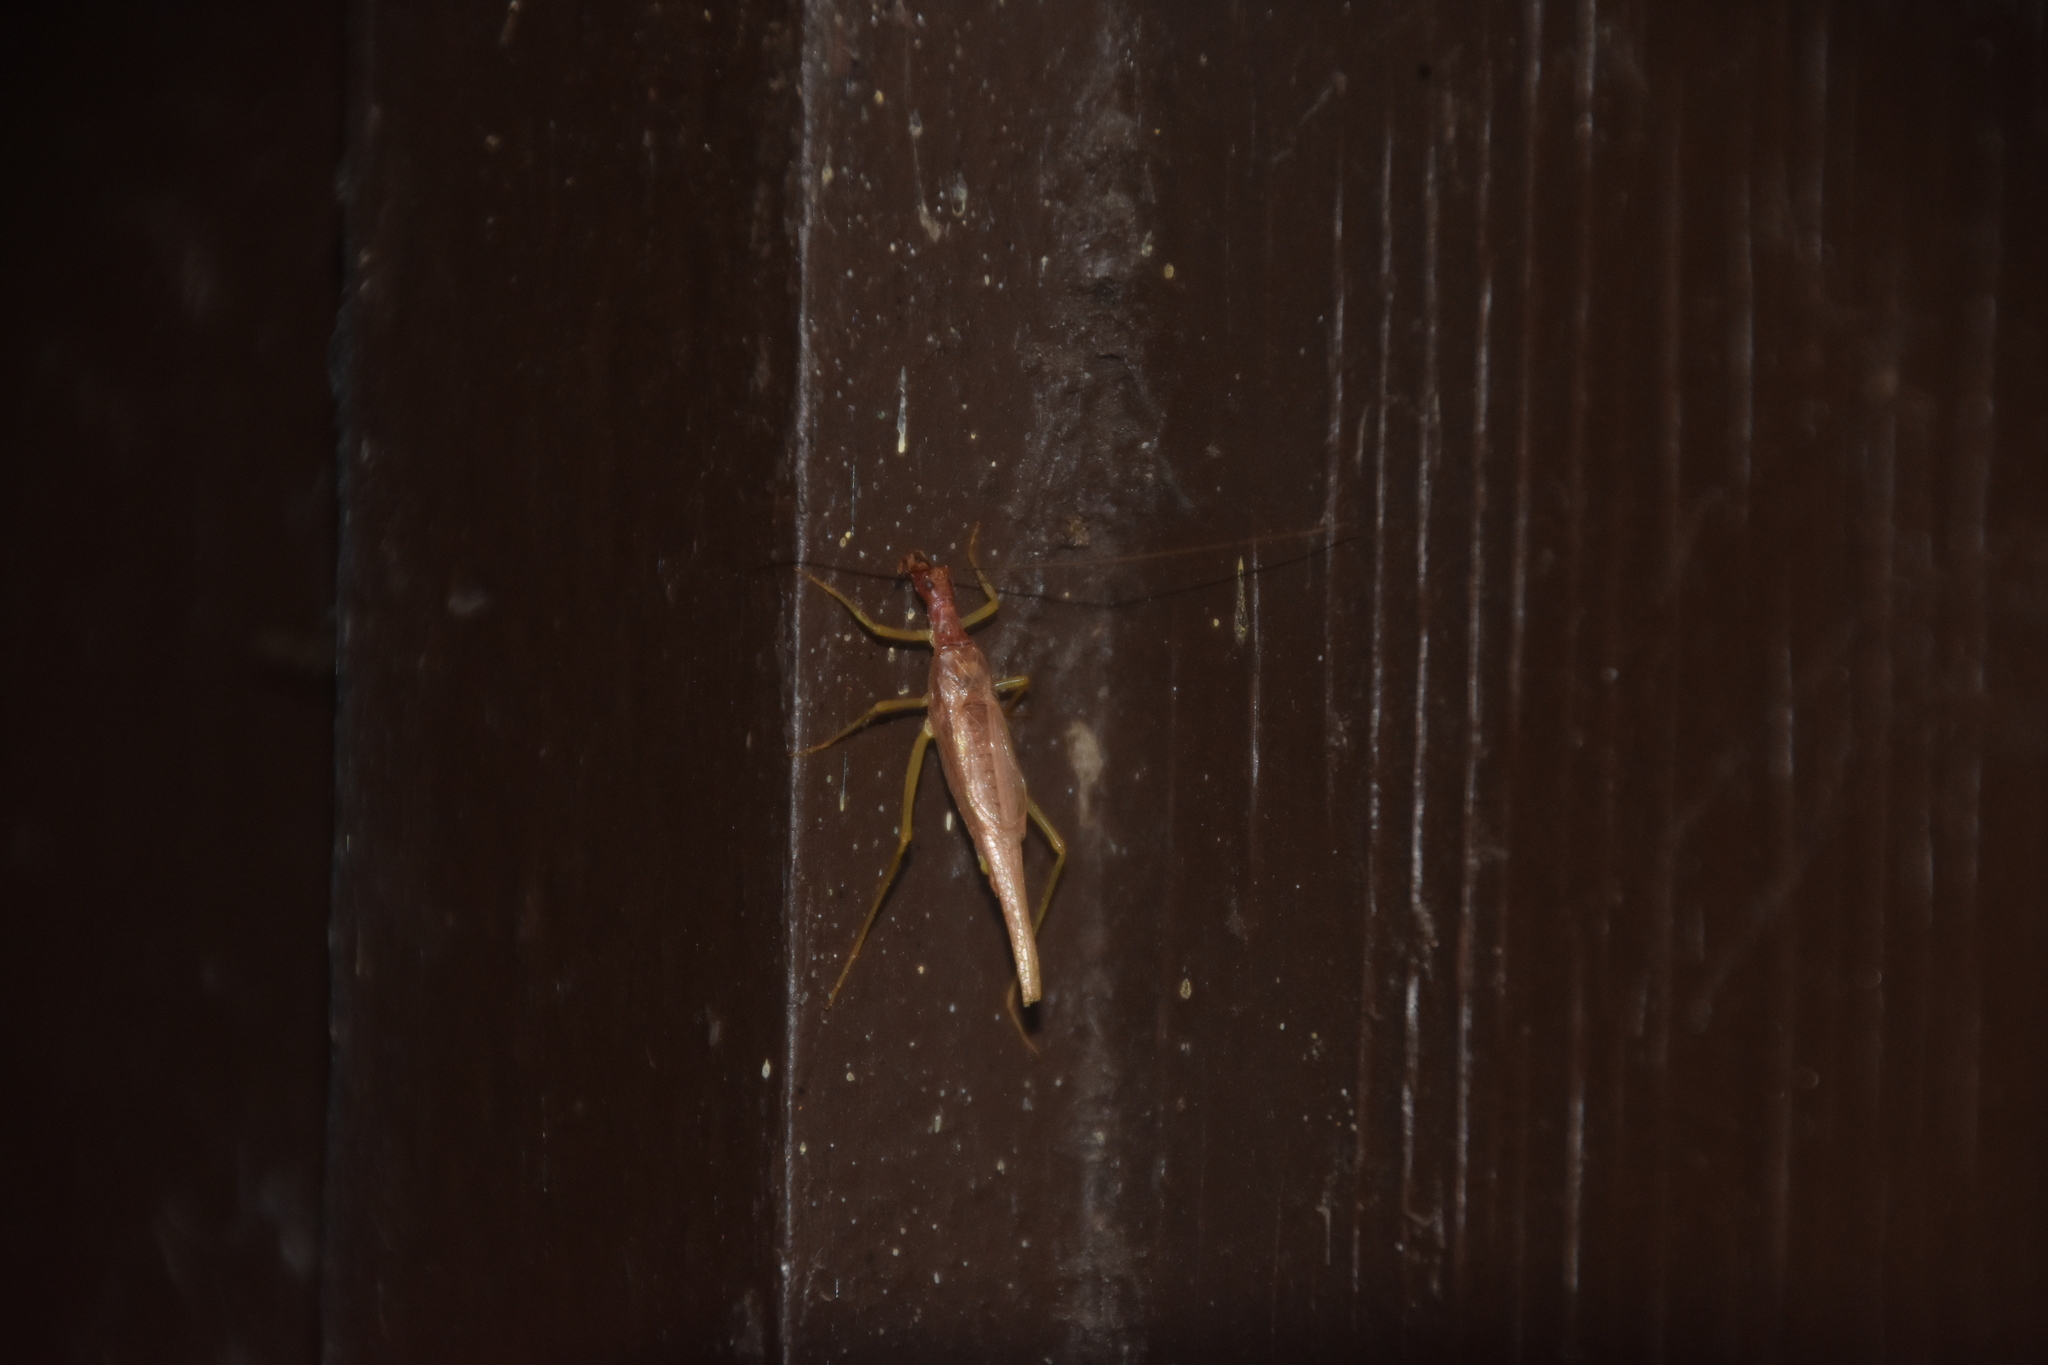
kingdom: Animalia
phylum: Arthropoda
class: Insecta
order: Orthoptera
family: Gryllidae
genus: Neoxabea
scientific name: Neoxabea bipunctata
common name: Two-spotted tree cricket
